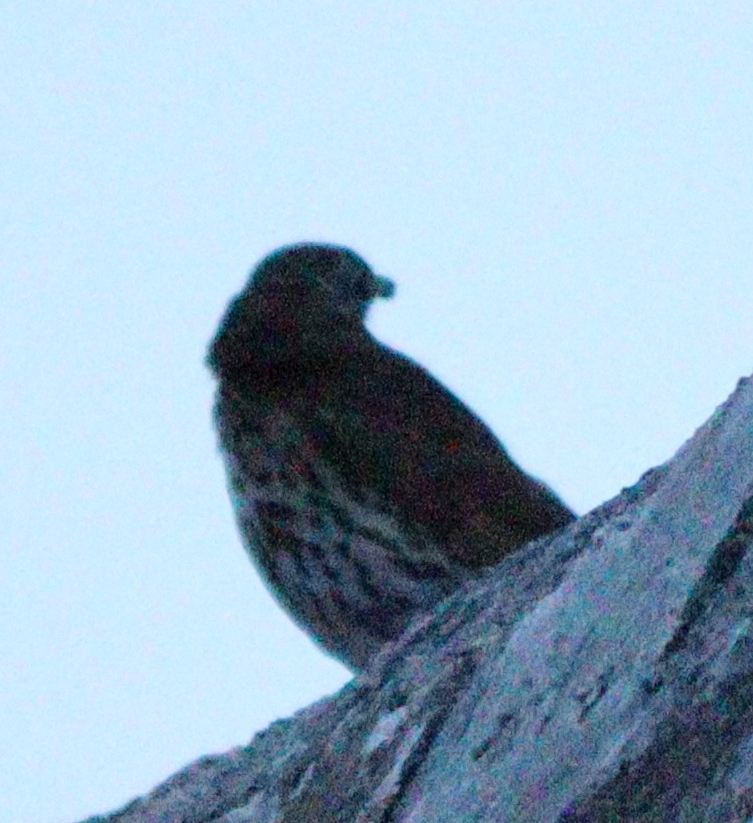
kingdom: Animalia
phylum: Chordata
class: Aves
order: Passeriformes
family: Turdidae
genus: Turdus
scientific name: Turdus philomelos
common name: Song thrush
